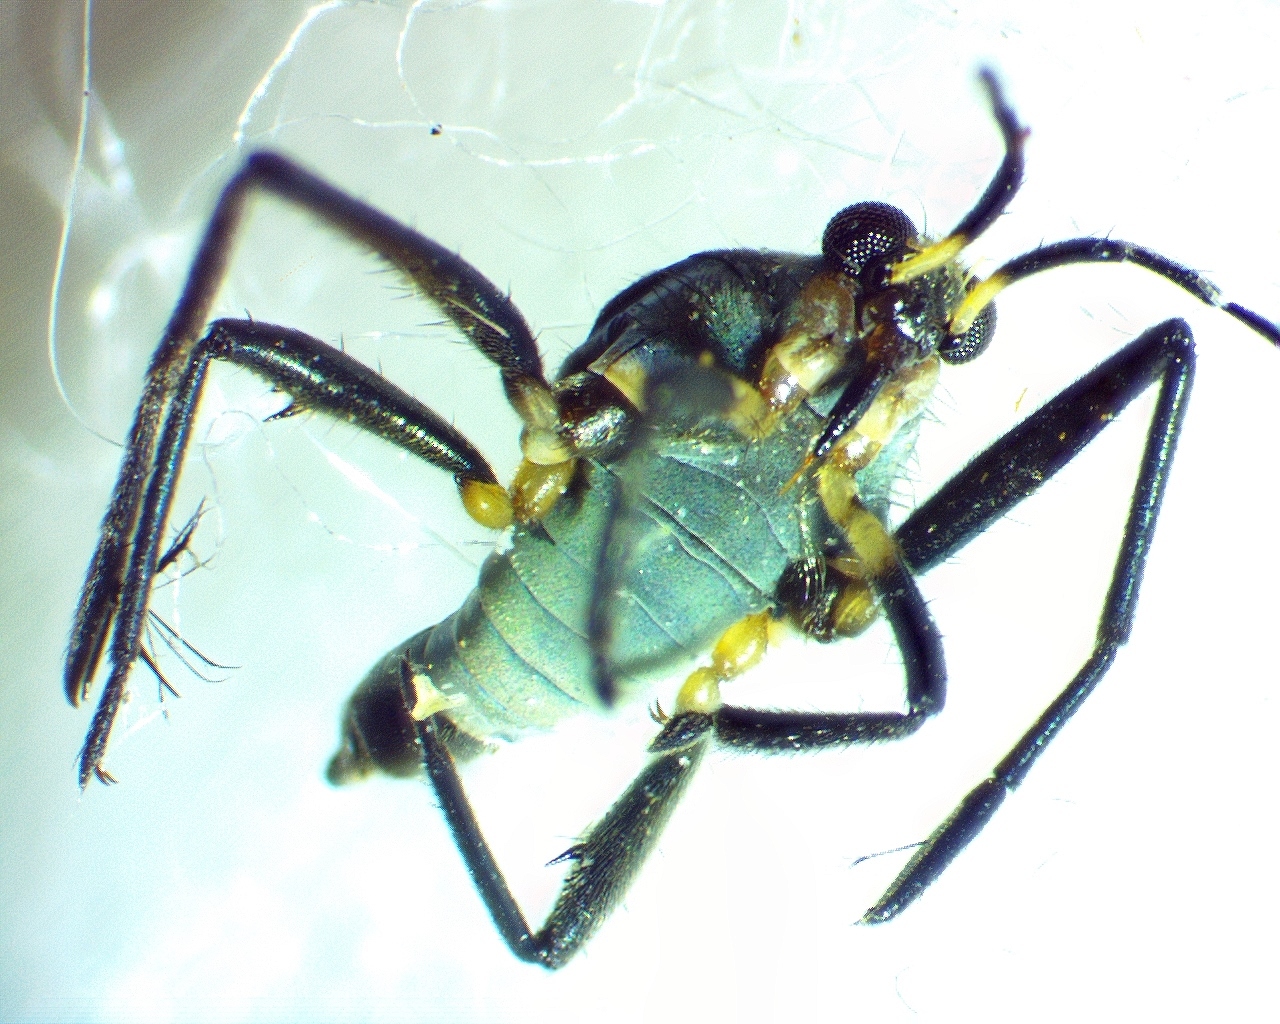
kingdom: Animalia
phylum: Arthropoda
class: Insecta
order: Hemiptera
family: Veliidae
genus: Rhagovelia
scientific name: Rhagovelia obesa
